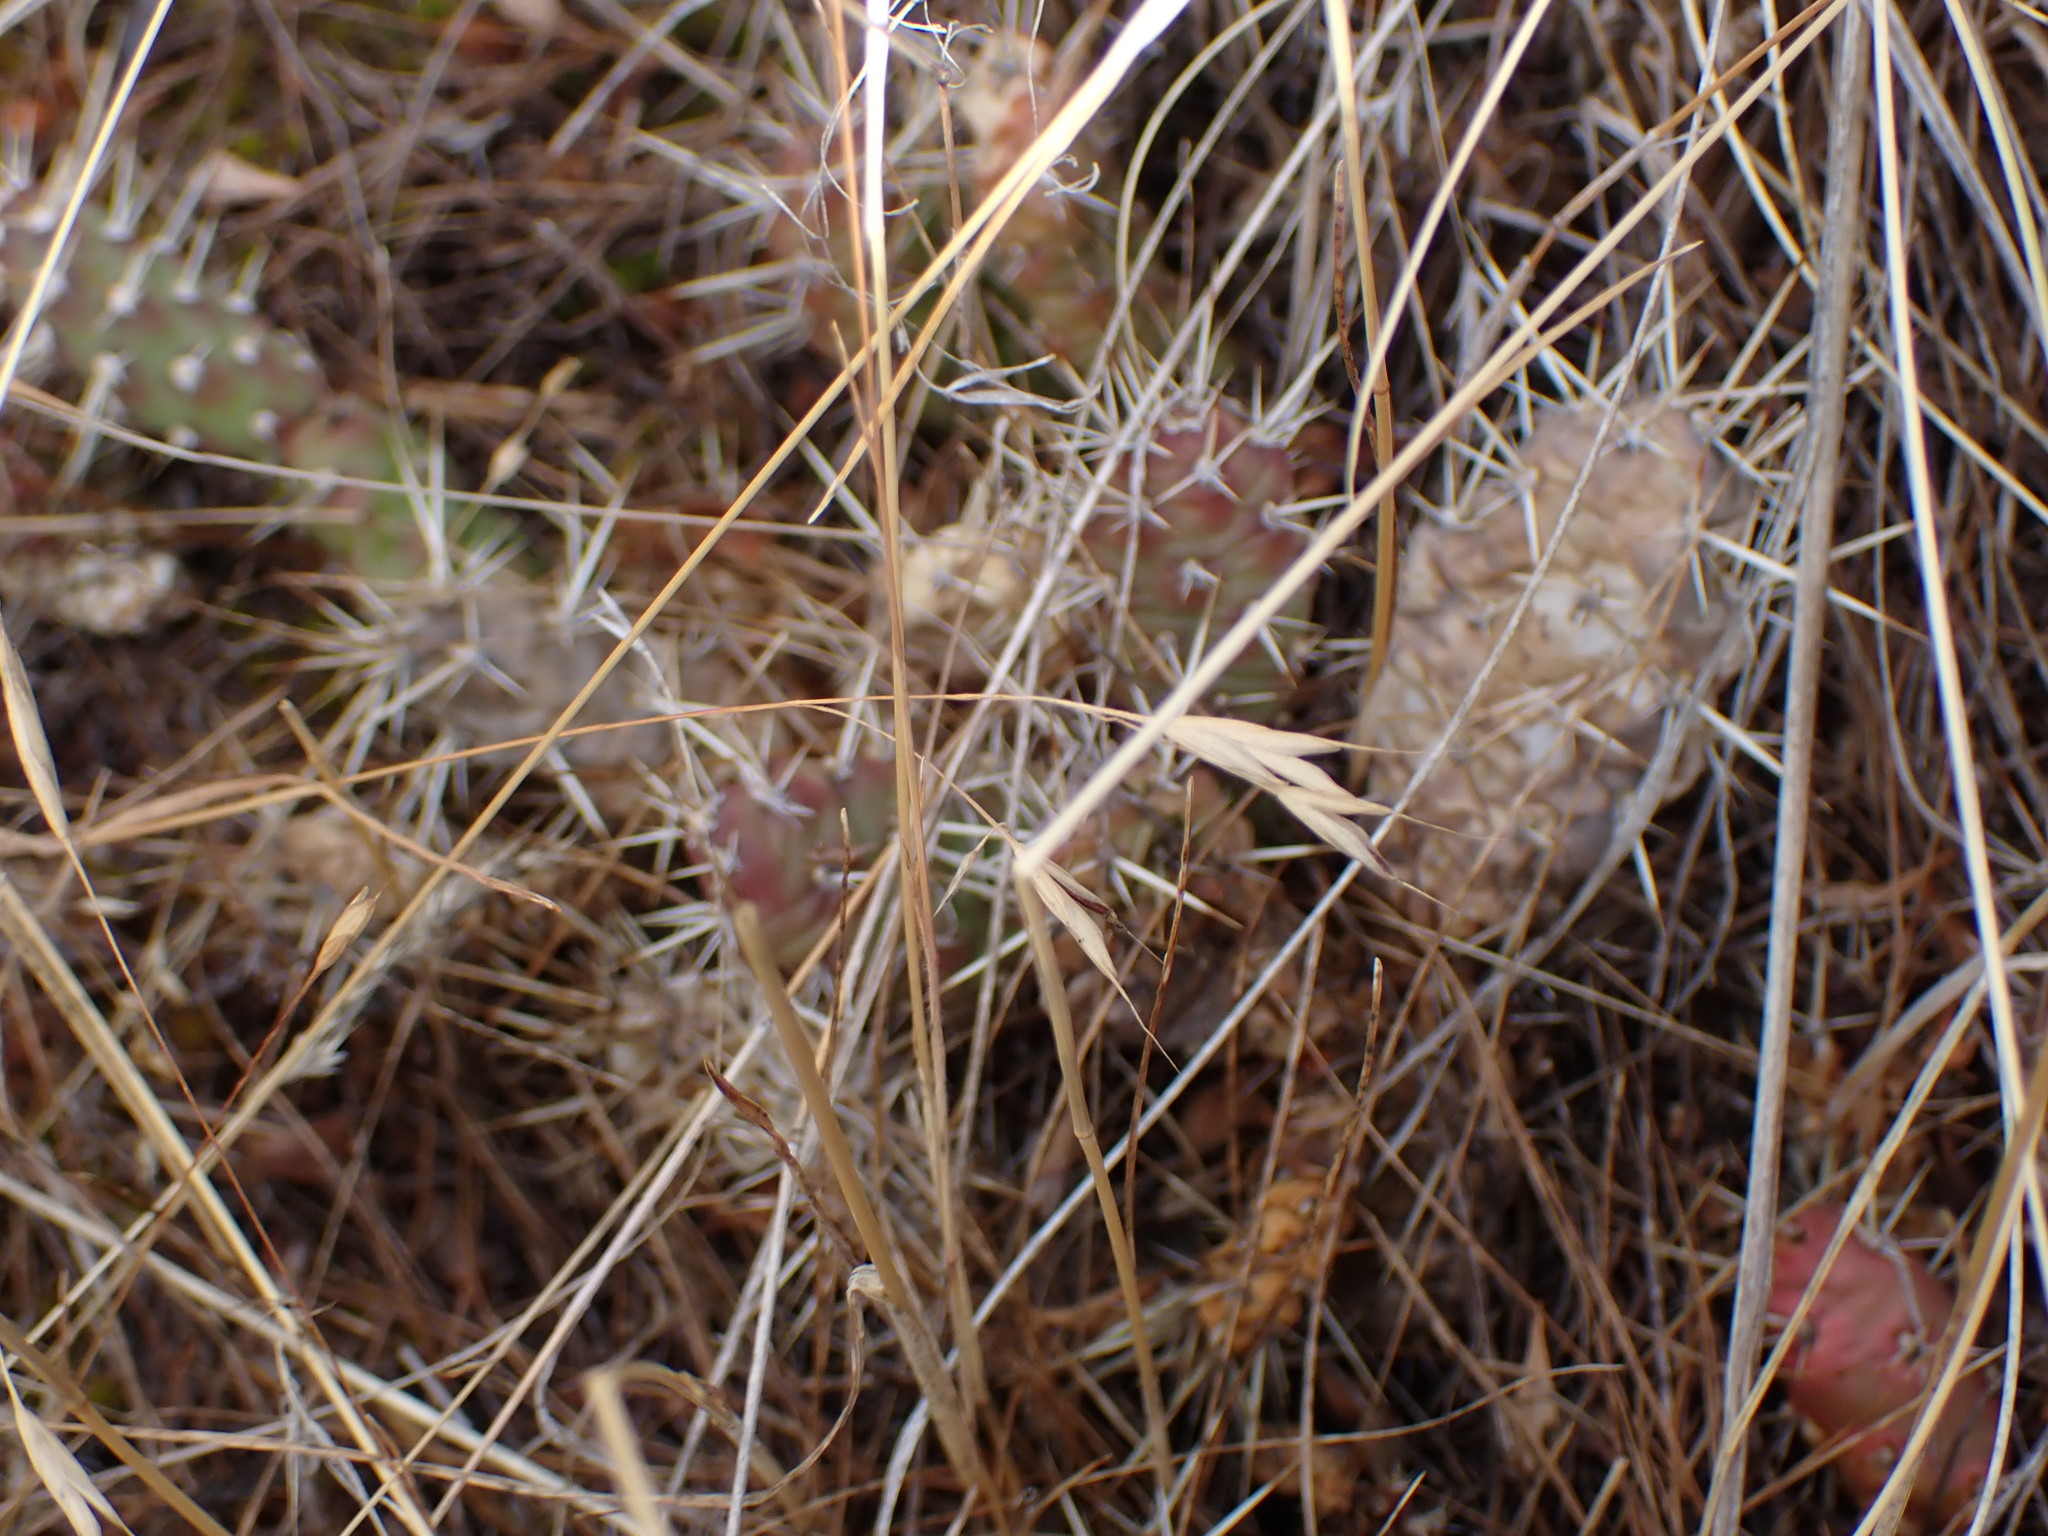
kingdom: Plantae
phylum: Tracheophyta
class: Magnoliopsida
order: Caryophyllales
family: Cactaceae
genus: Opuntia
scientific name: Opuntia fragilis
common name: Brittle cactus
